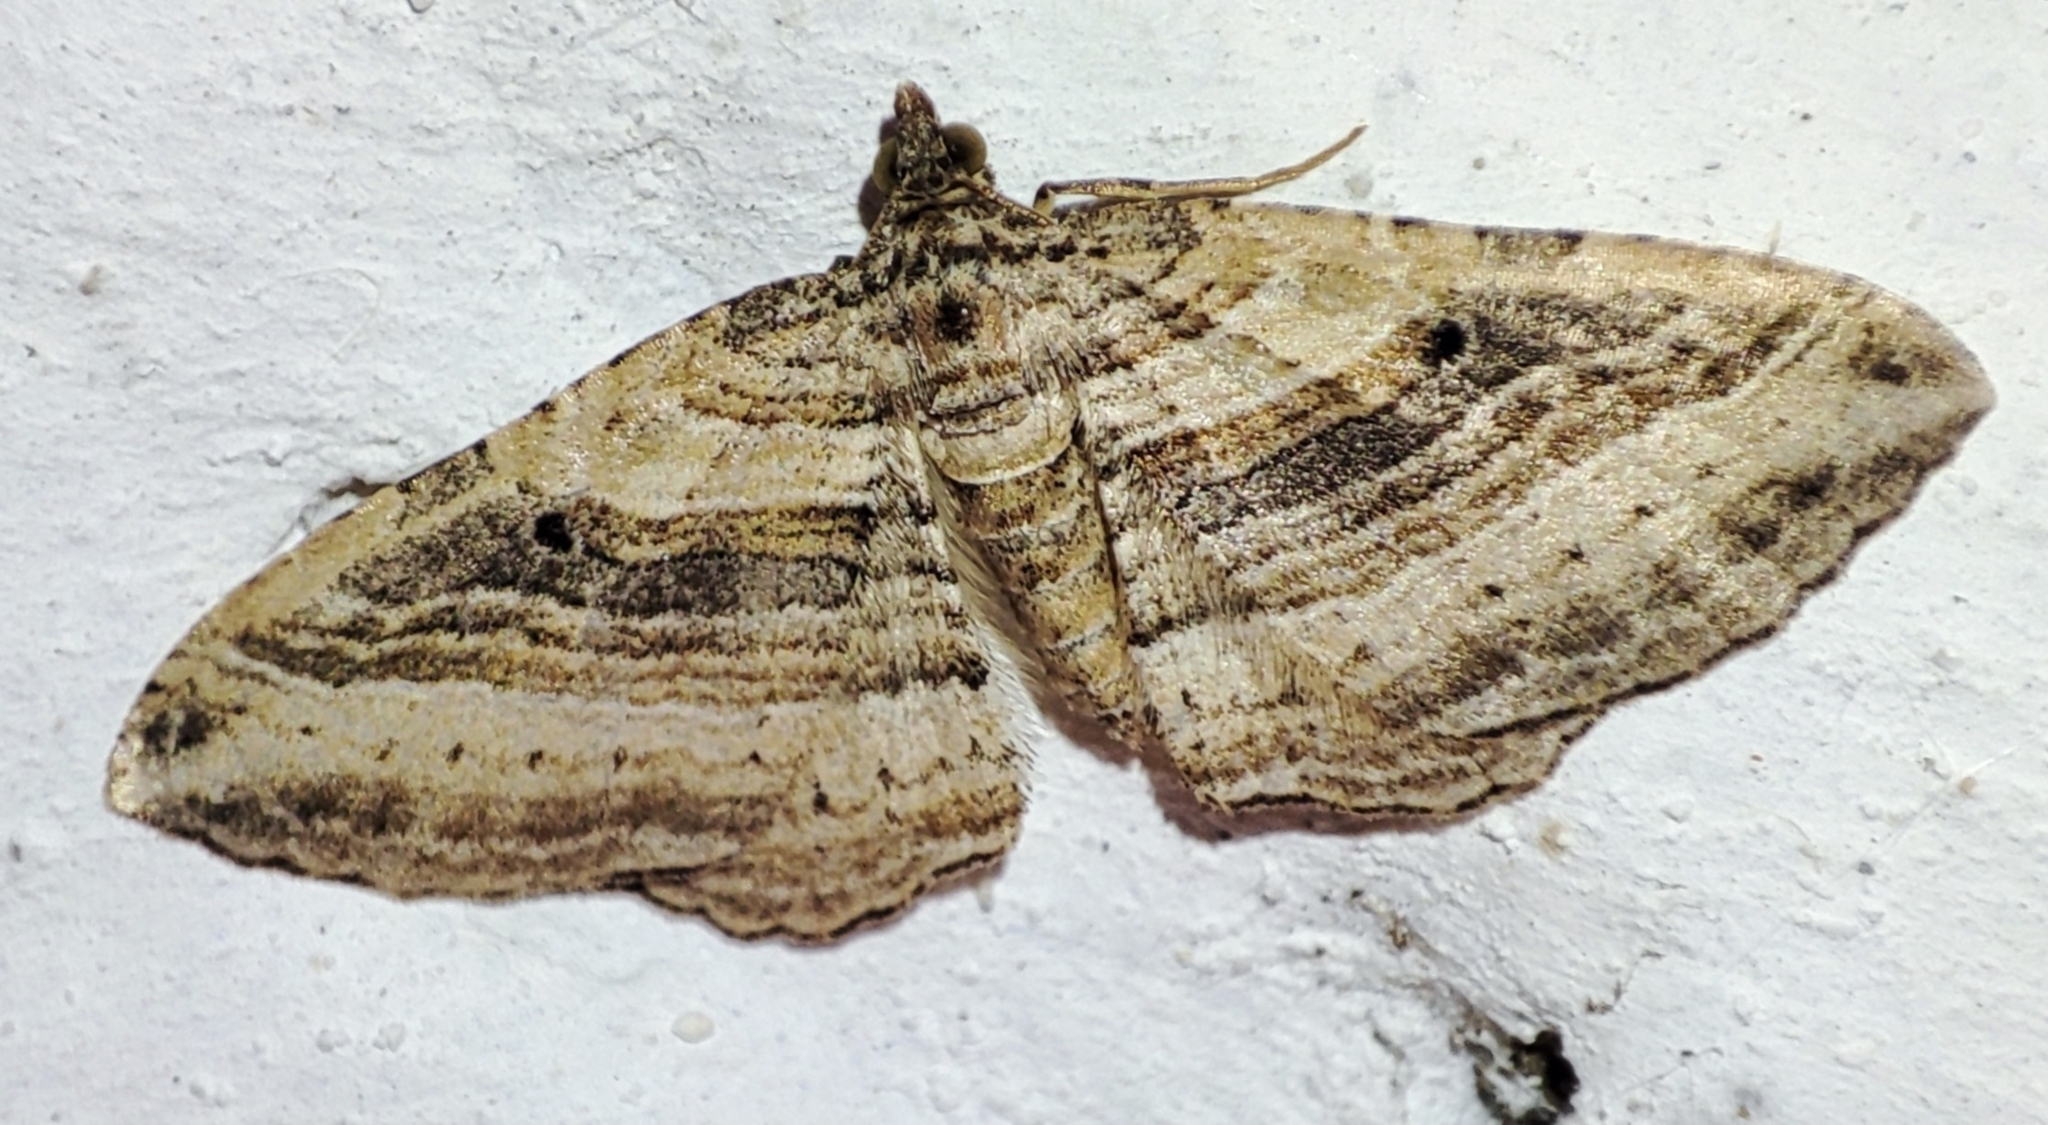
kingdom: Animalia
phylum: Arthropoda
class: Insecta
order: Lepidoptera
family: Geometridae
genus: Costaconvexa
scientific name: Costaconvexa polygrammata
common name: Many-lined
